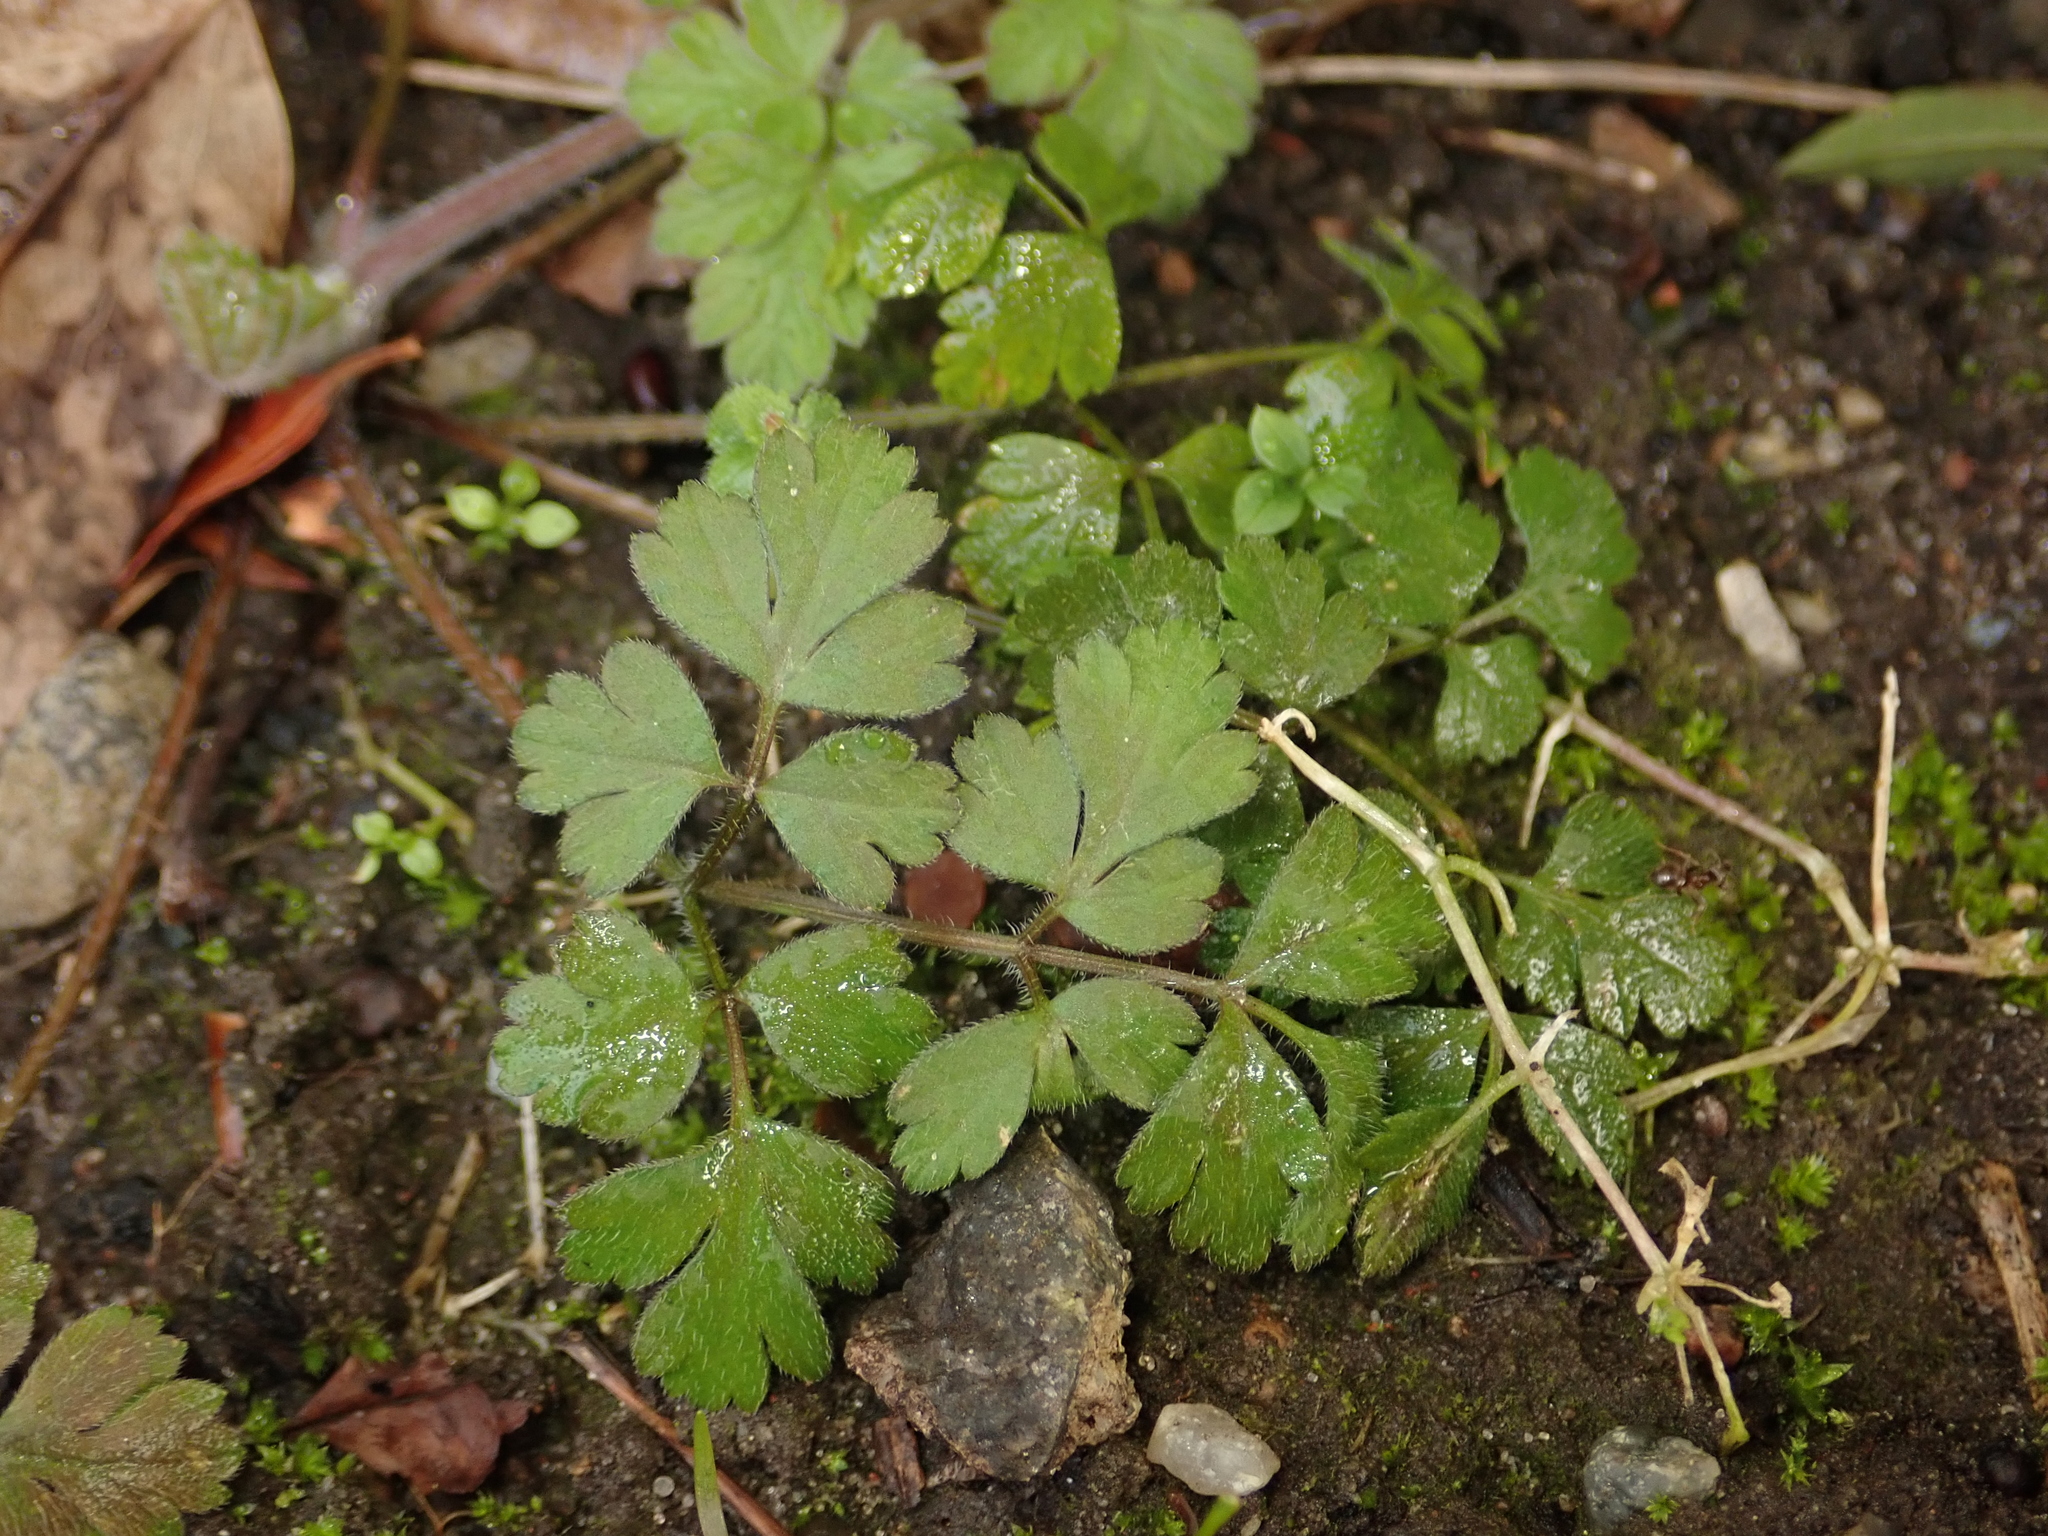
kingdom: Plantae
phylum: Tracheophyta
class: Magnoliopsida
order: Apiales
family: Apiaceae
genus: Chaerophyllum
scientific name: Chaerophyllum temulum
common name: Rough chervil
